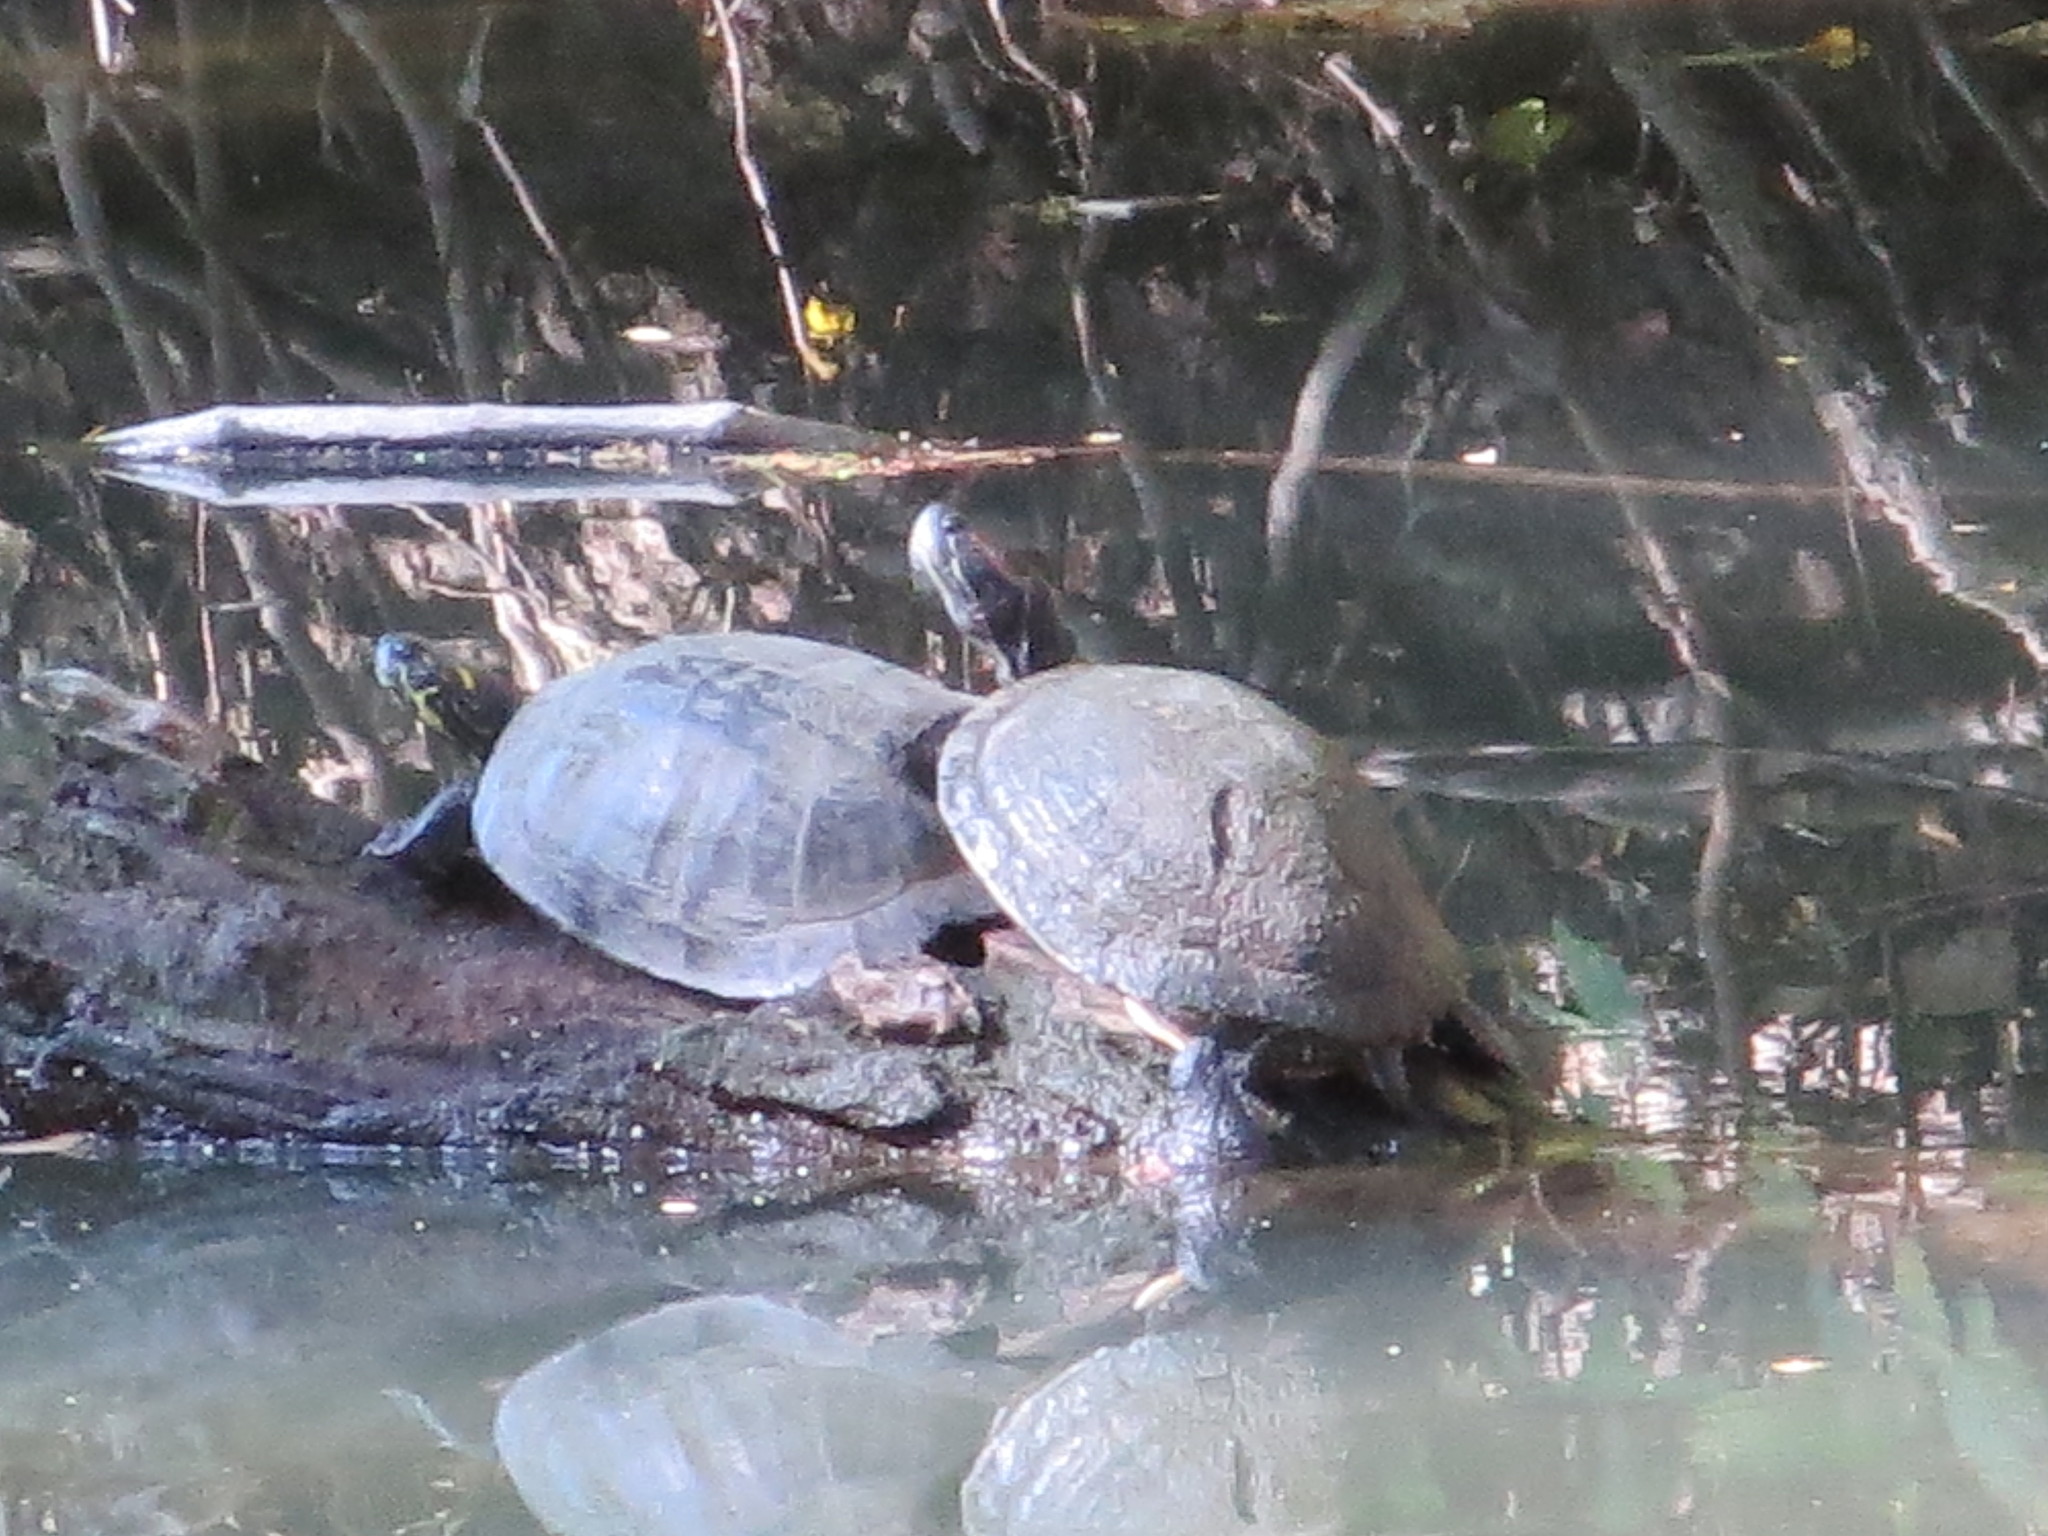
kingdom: Animalia
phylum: Chordata
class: Testudines
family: Emydidae
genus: Pseudemys
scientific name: Pseudemys texana
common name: Texas river cooter
